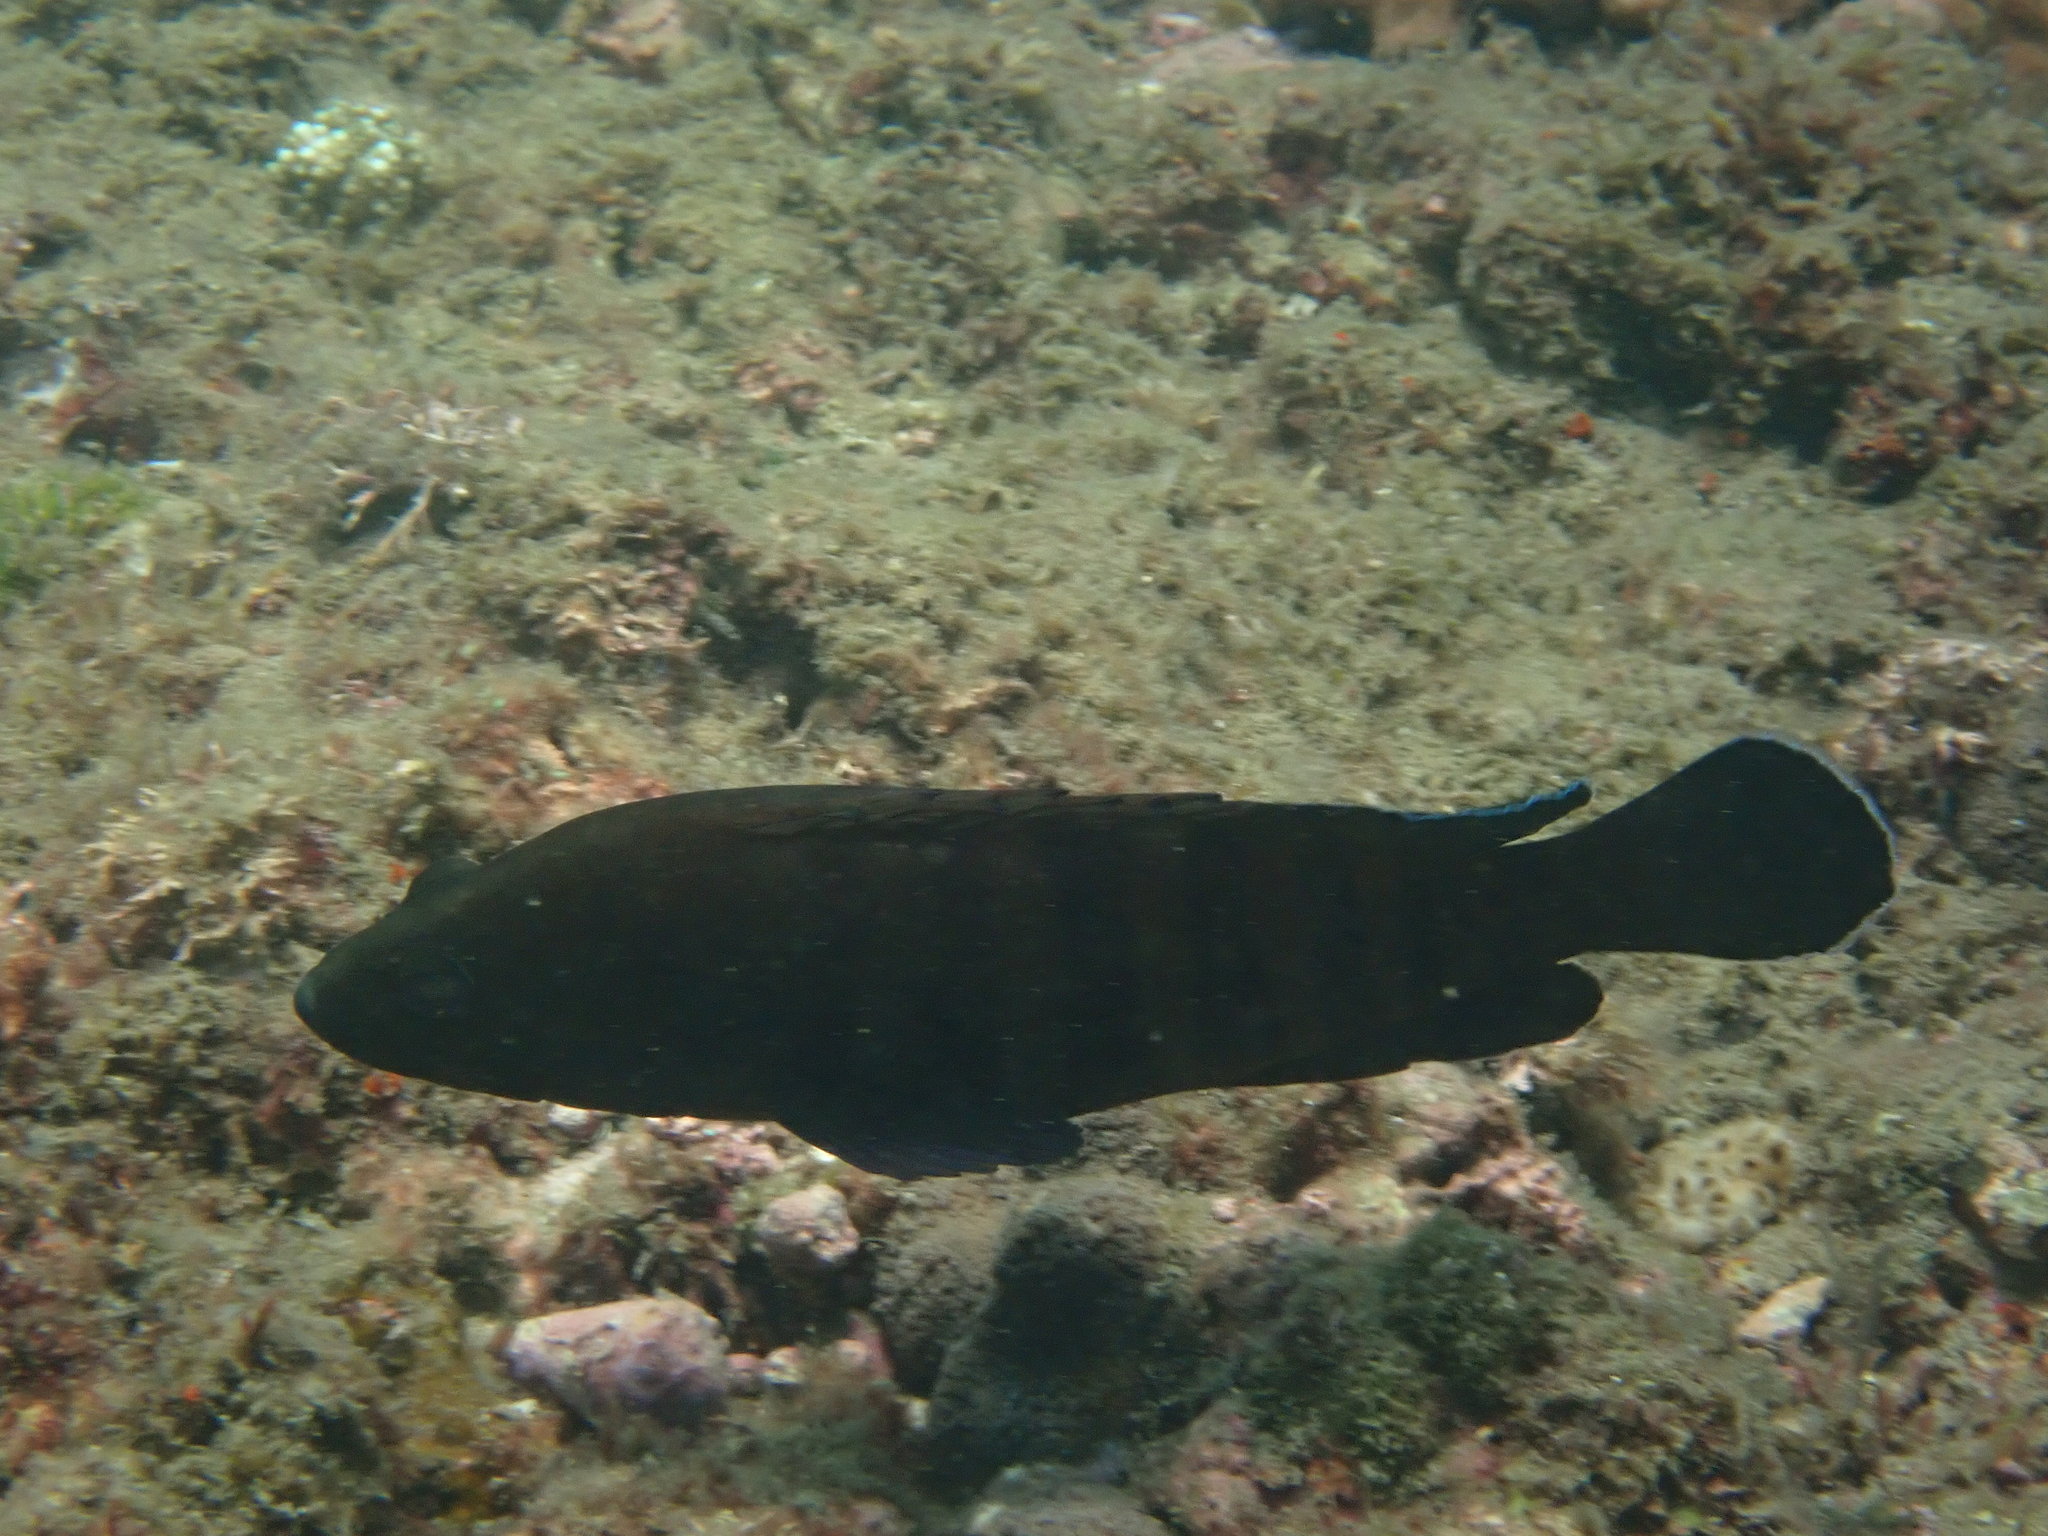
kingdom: Animalia
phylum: Chordata
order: Perciformes
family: Serranidae
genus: Cephalopholis
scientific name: Cephalopholis boenak
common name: Chocolate hind
